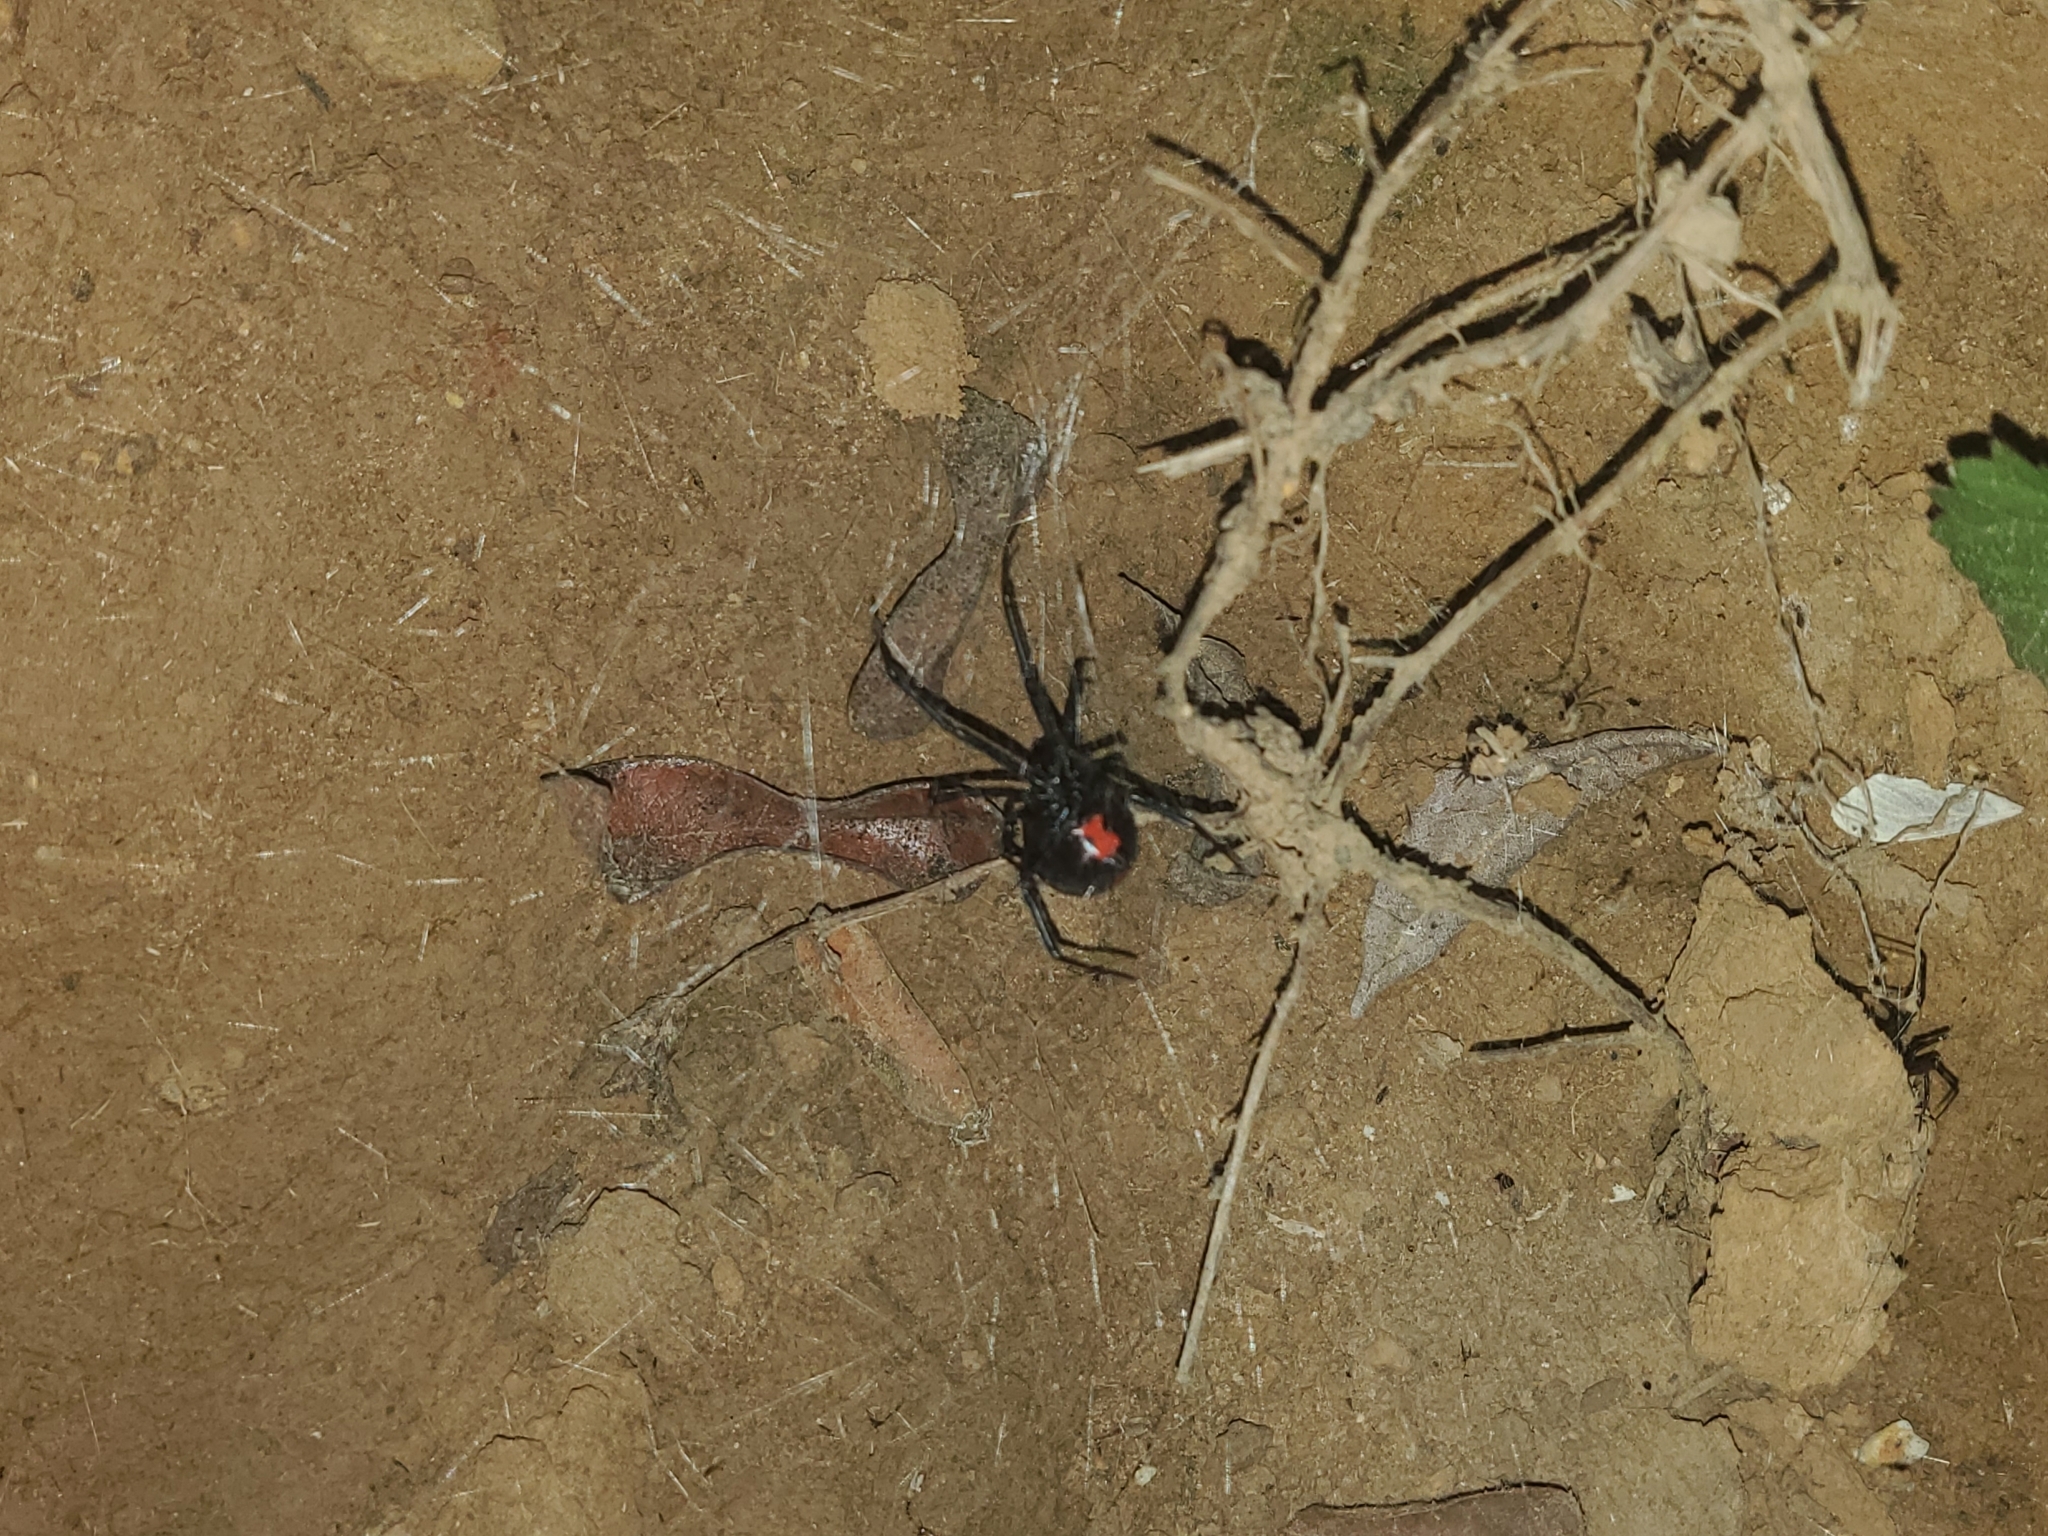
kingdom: Animalia
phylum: Arthropoda
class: Arachnida
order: Araneae
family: Theridiidae
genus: Latrodectus
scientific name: Latrodectus mactans
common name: Cobweb spiders
